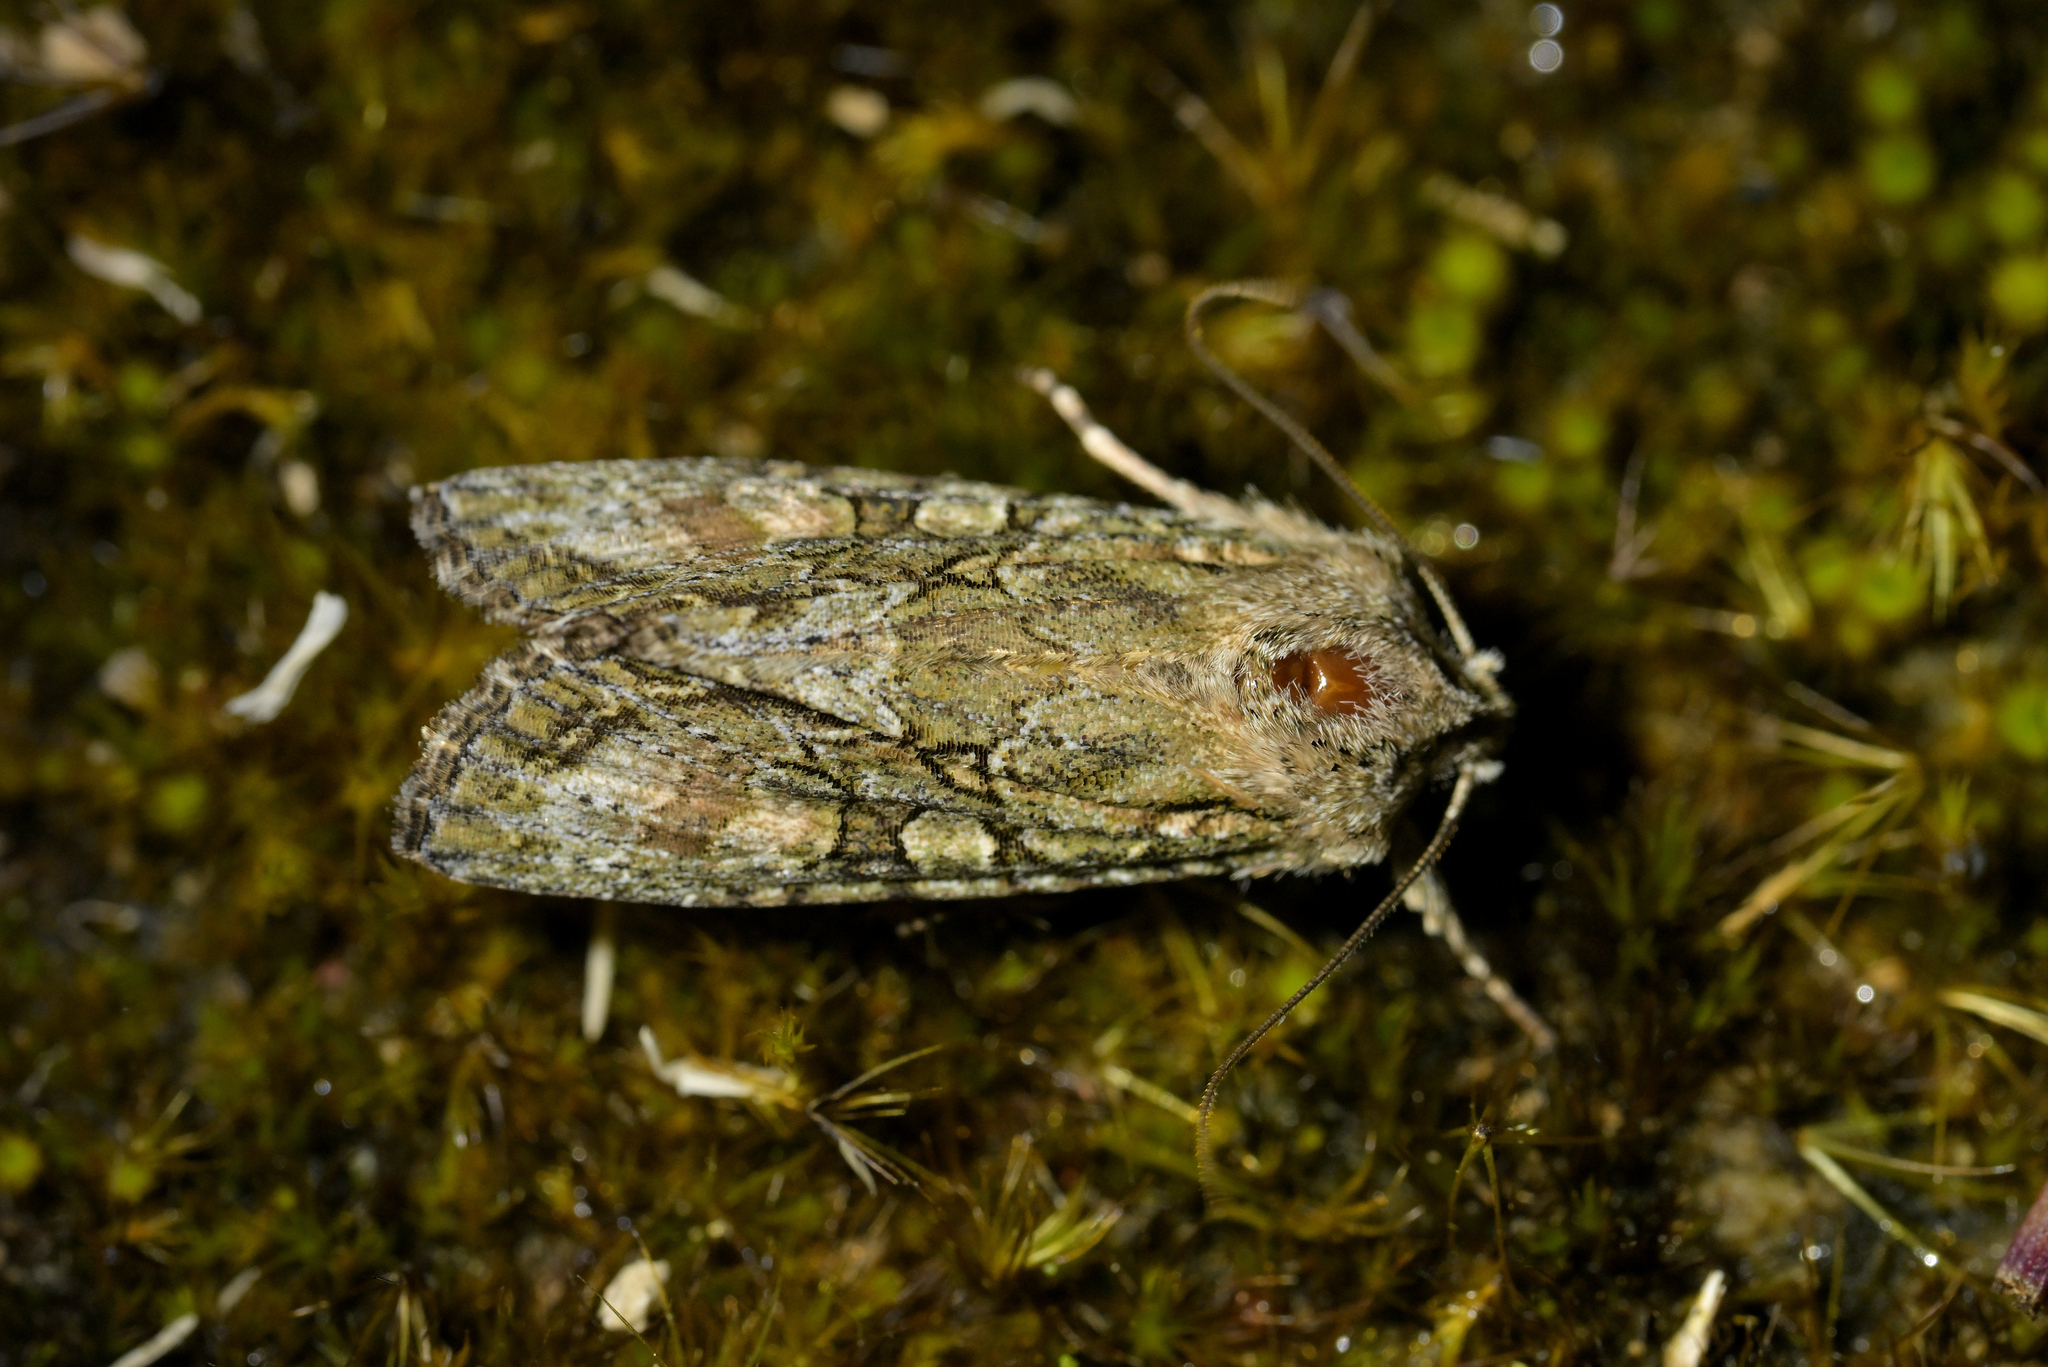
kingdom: Animalia
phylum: Arthropoda
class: Insecta
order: Lepidoptera
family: Noctuidae
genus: Ichneutica
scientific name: Ichneutica mutans
